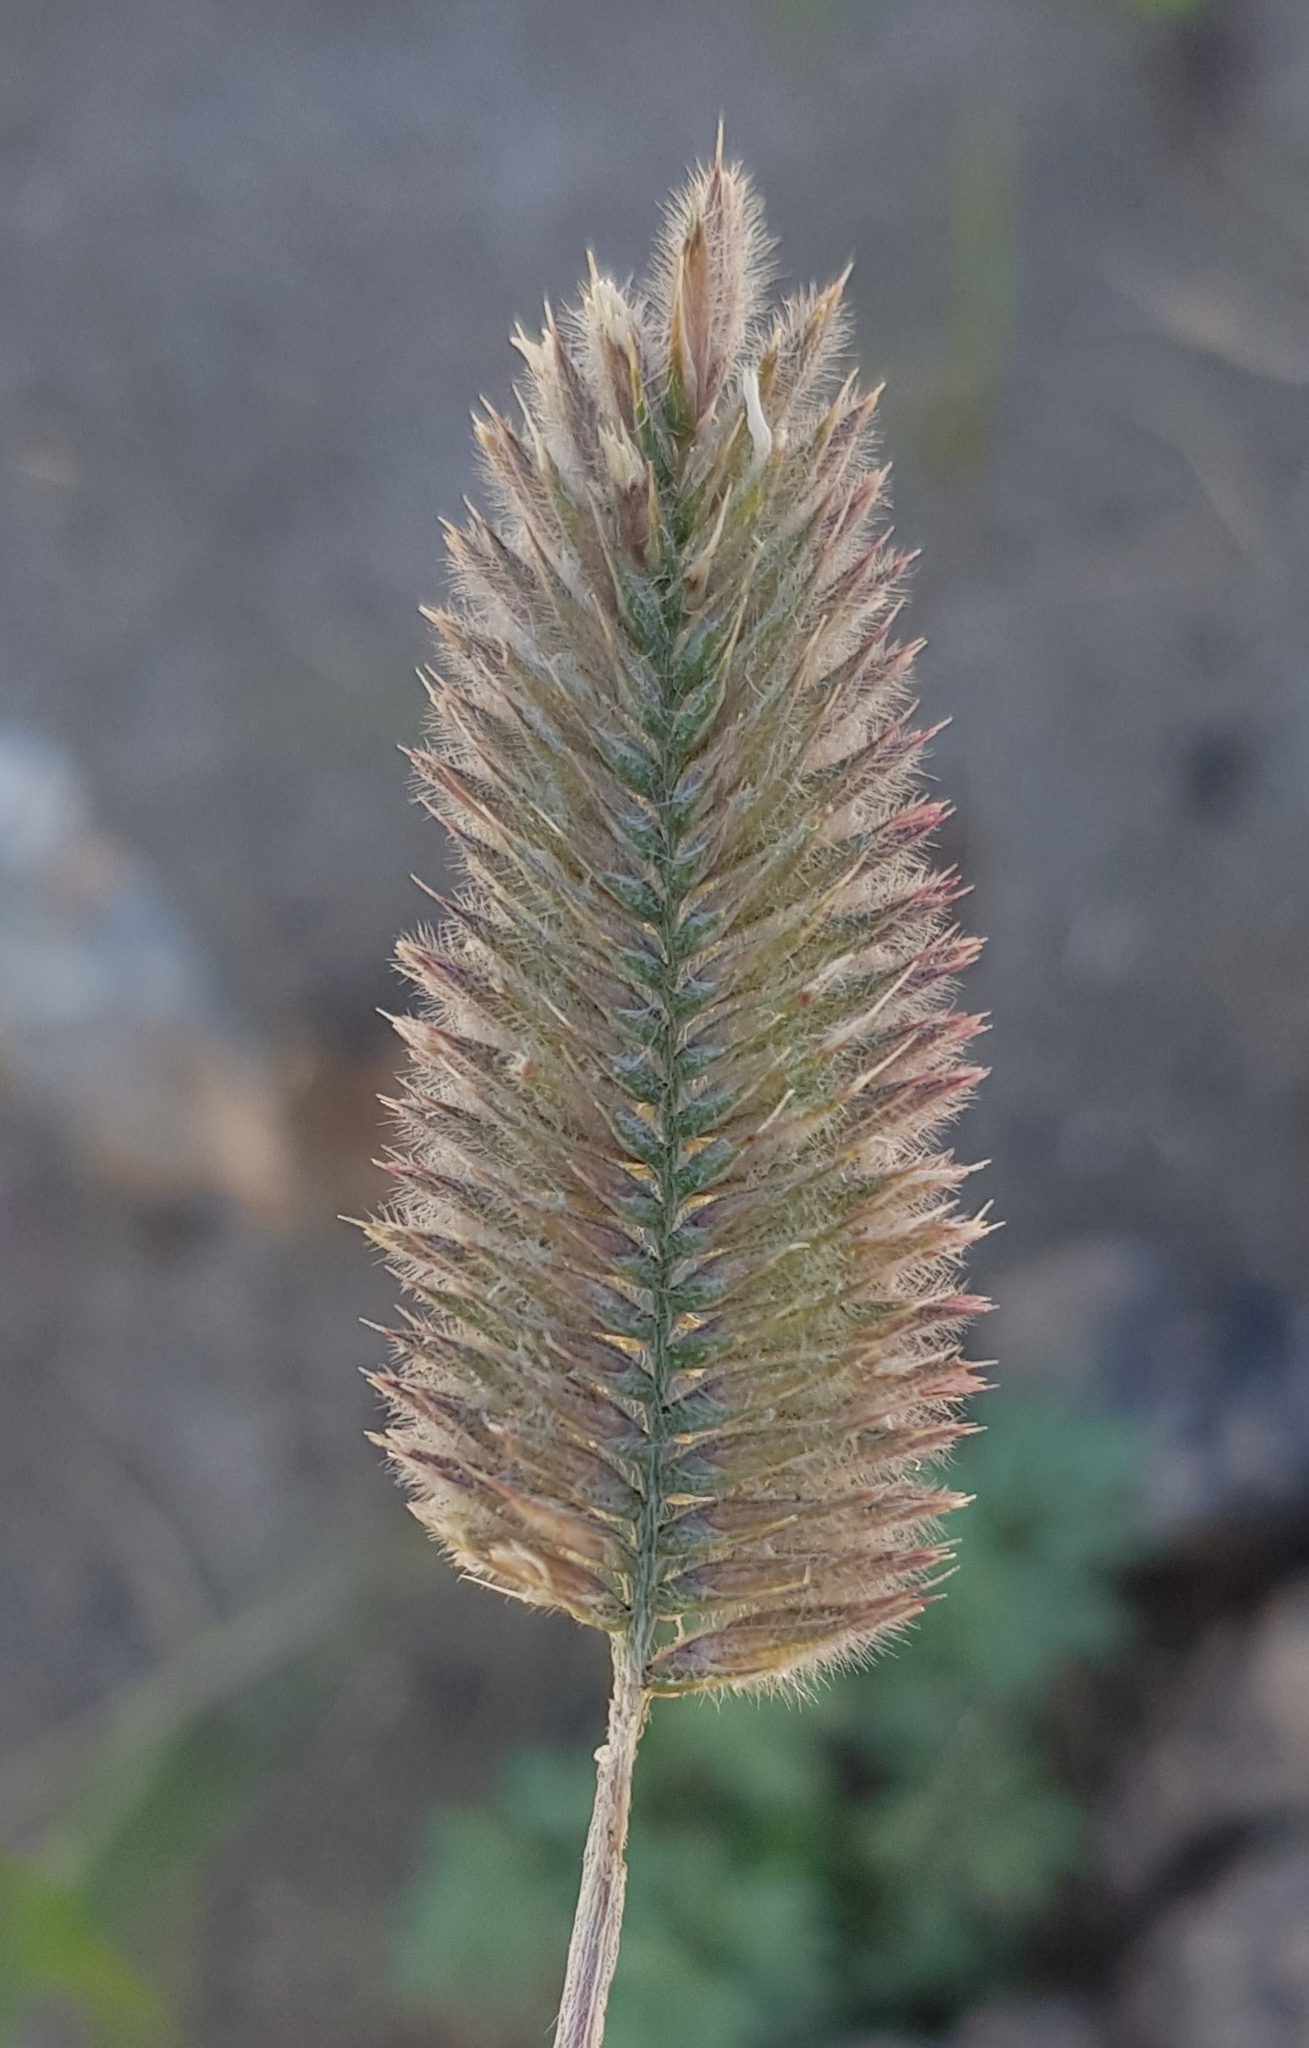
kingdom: Plantae
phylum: Tracheophyta
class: Liliopsida
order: Poales
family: Poaceae
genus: Agropyron
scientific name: Agropyron cristatum
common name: Crested wheatgrass
